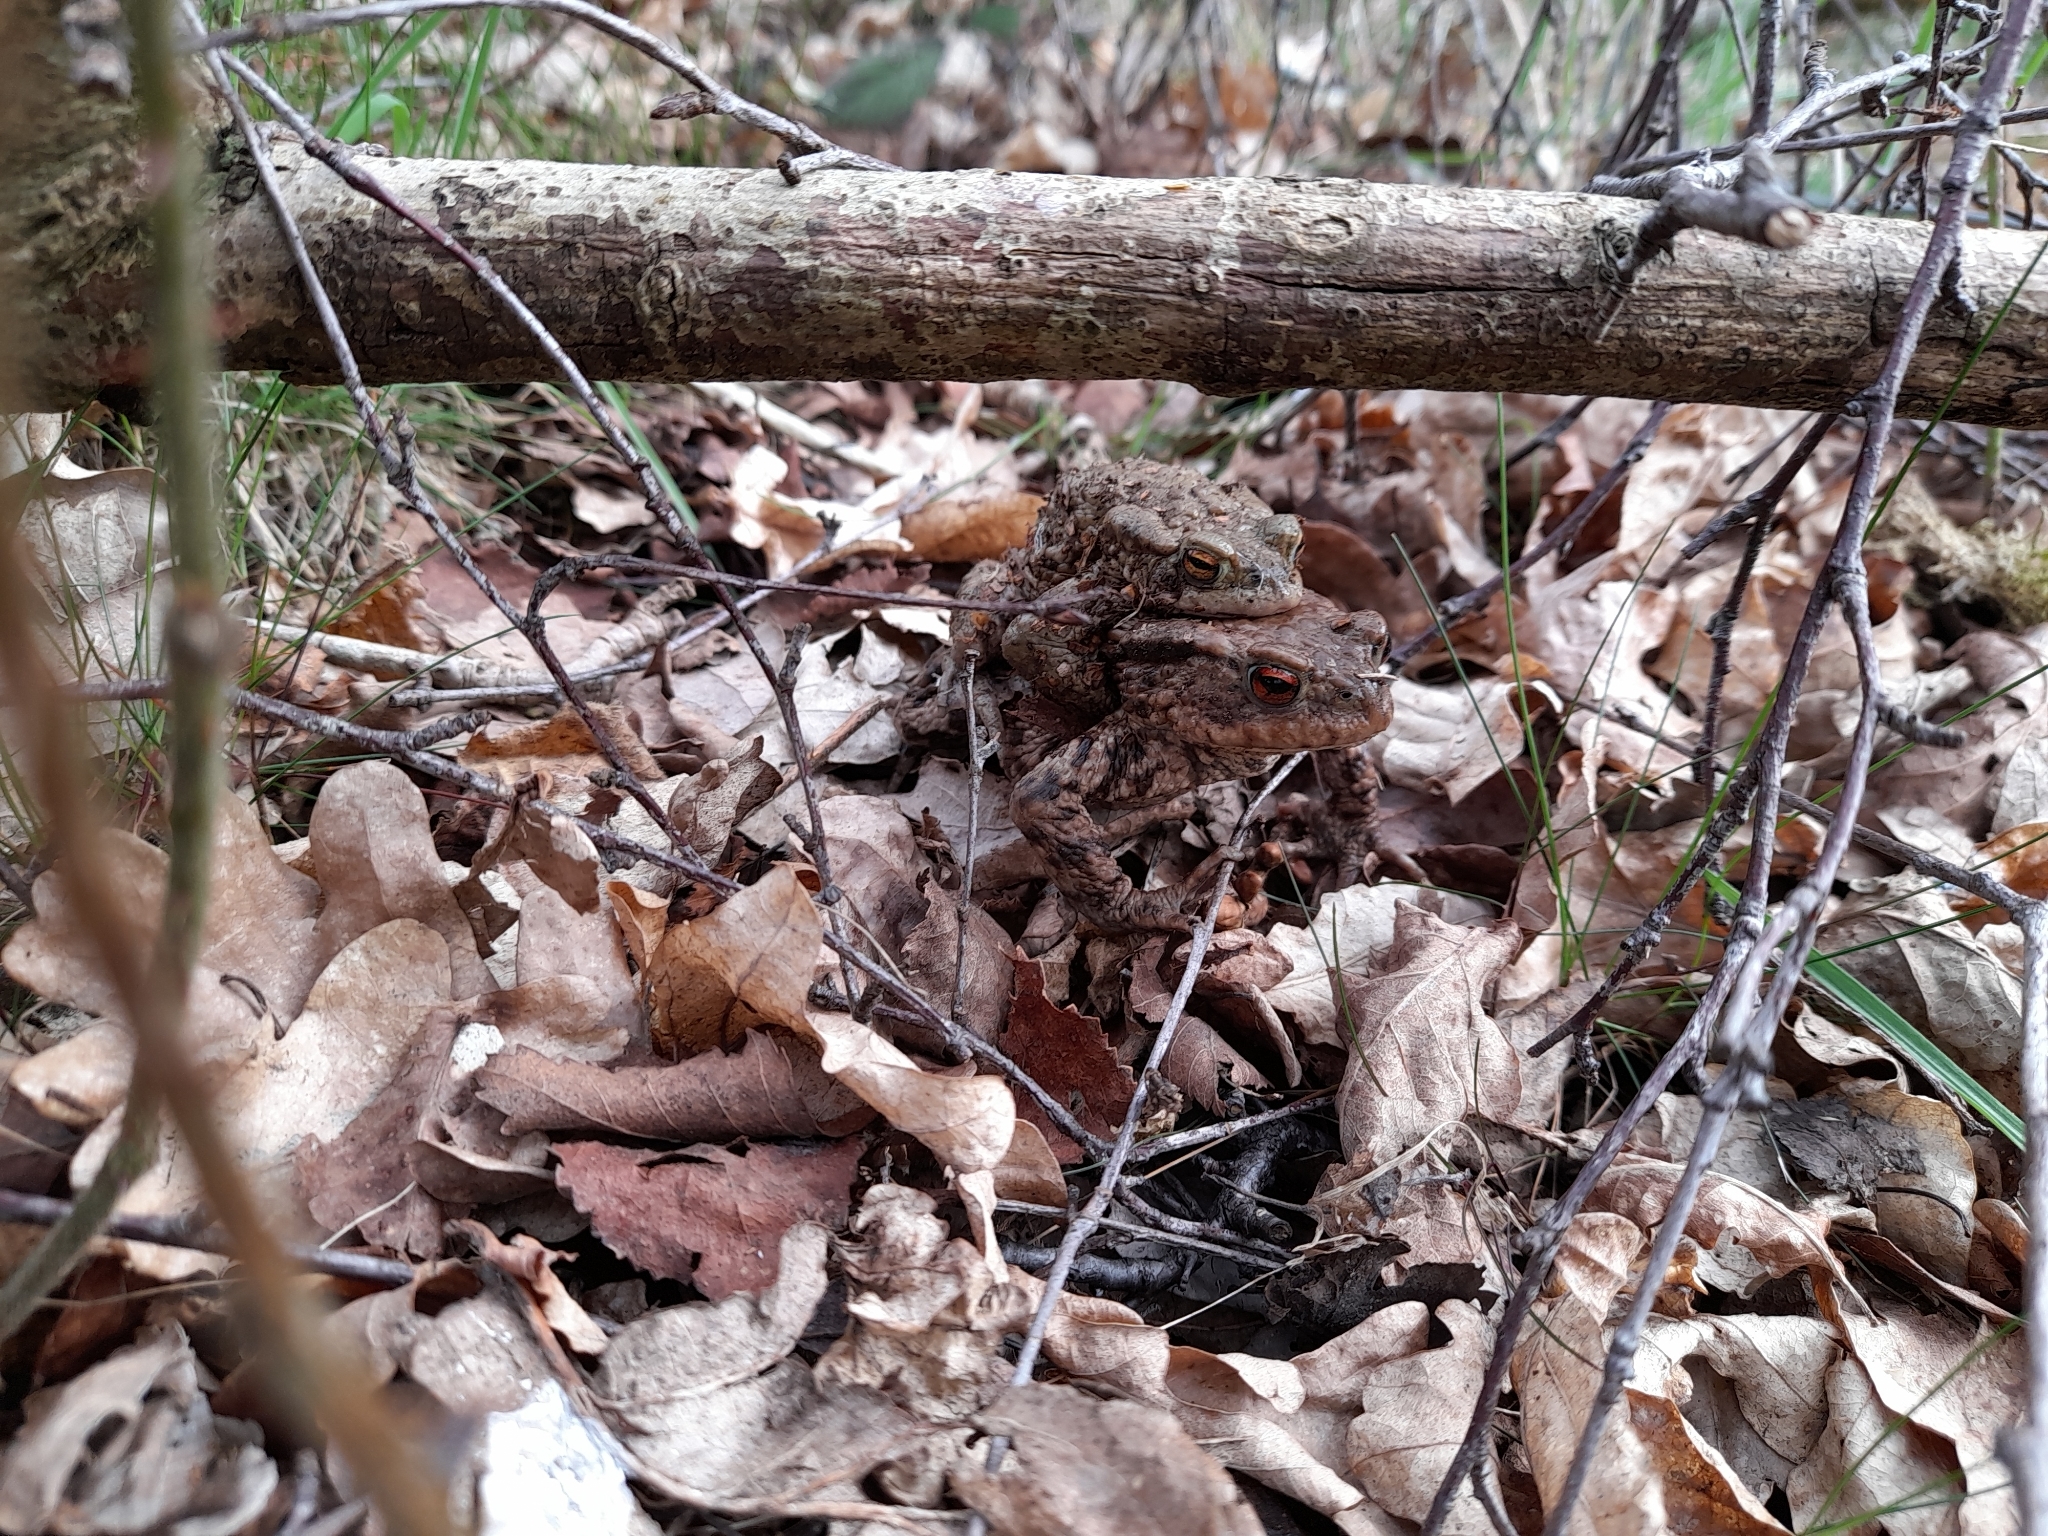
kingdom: Animalia
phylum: Chordata
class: Amphibia
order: Anura
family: Bufonidae
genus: Bufo
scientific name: Bufo bufo
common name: Common toad
